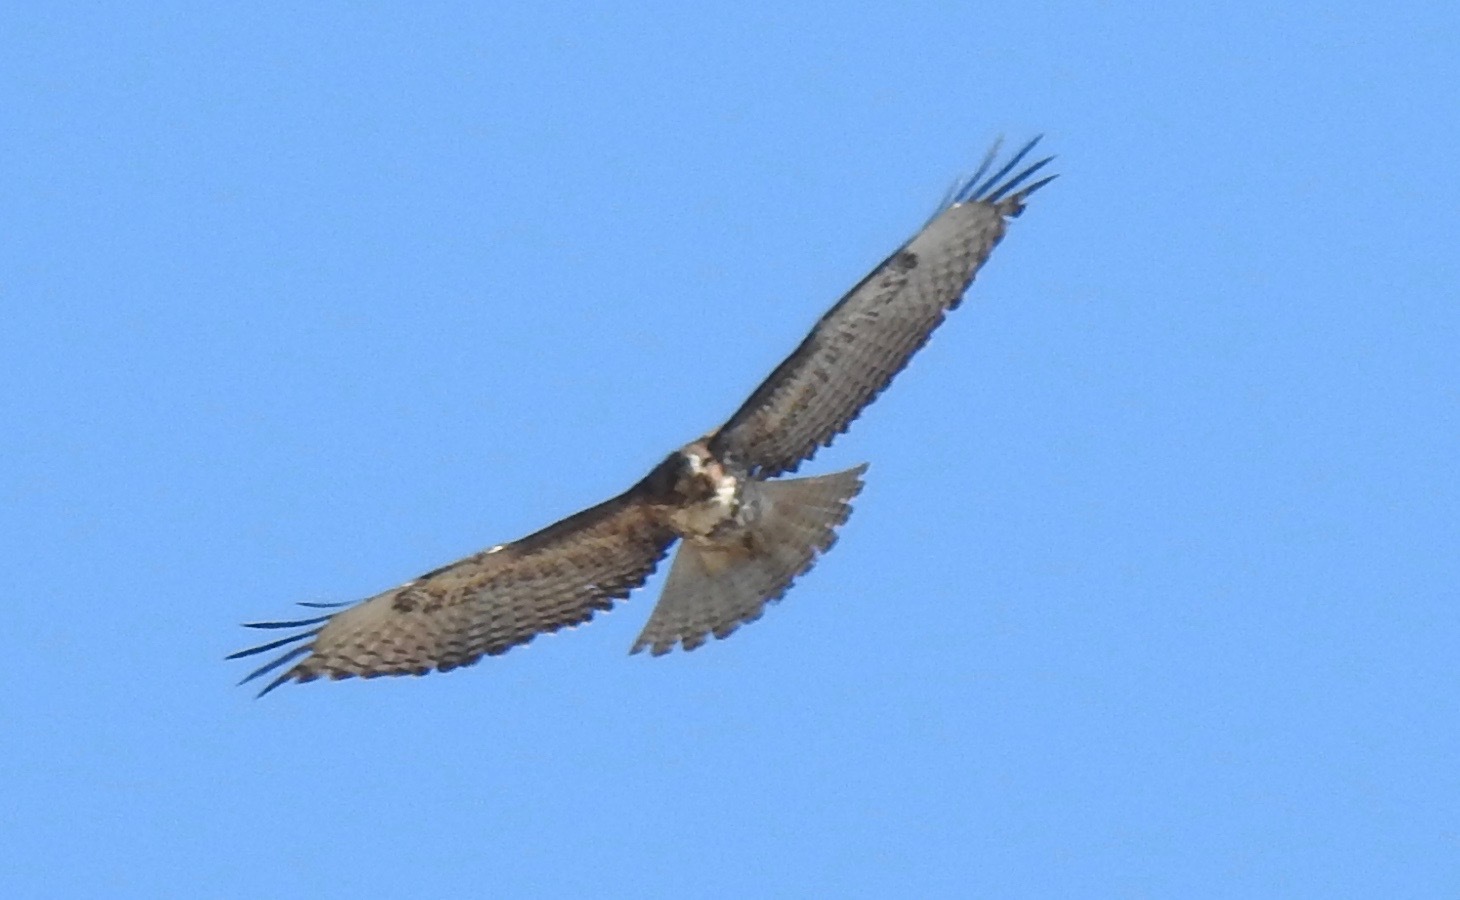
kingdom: Animalia
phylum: Chordata
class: Aves
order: Accipitriformes
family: Accipitridae
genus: Buteo
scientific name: Buteo jamaicensis
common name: Red-tailed hawk
